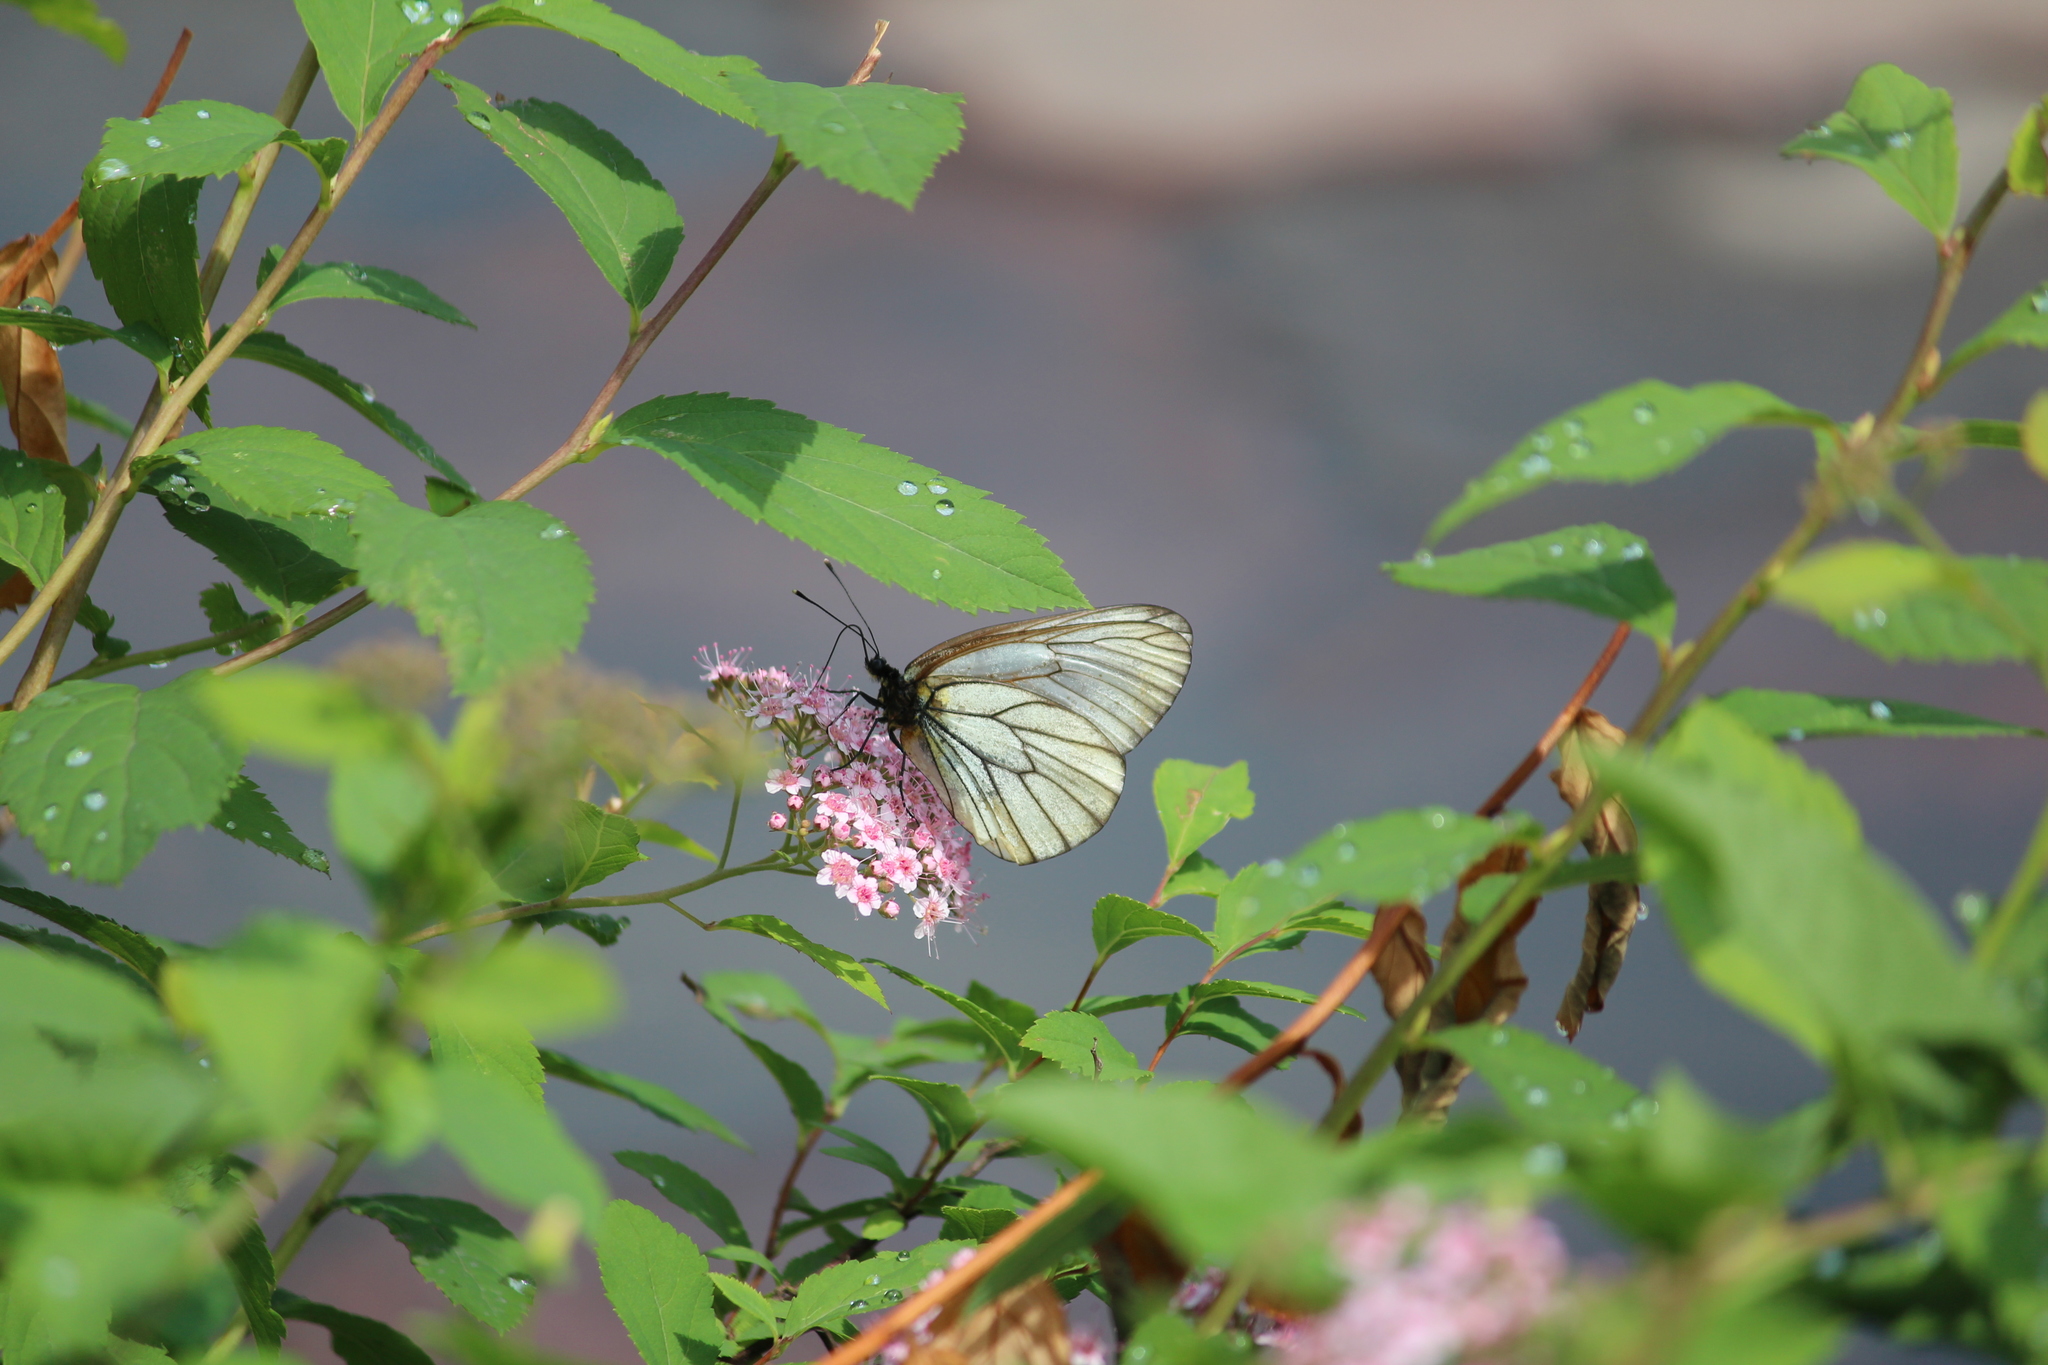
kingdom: Animalia
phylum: Arthropoda
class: Insecta
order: Lepidoptera
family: Pieridae
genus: Aporia
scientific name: Aporia crataegi
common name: Black-veined white
